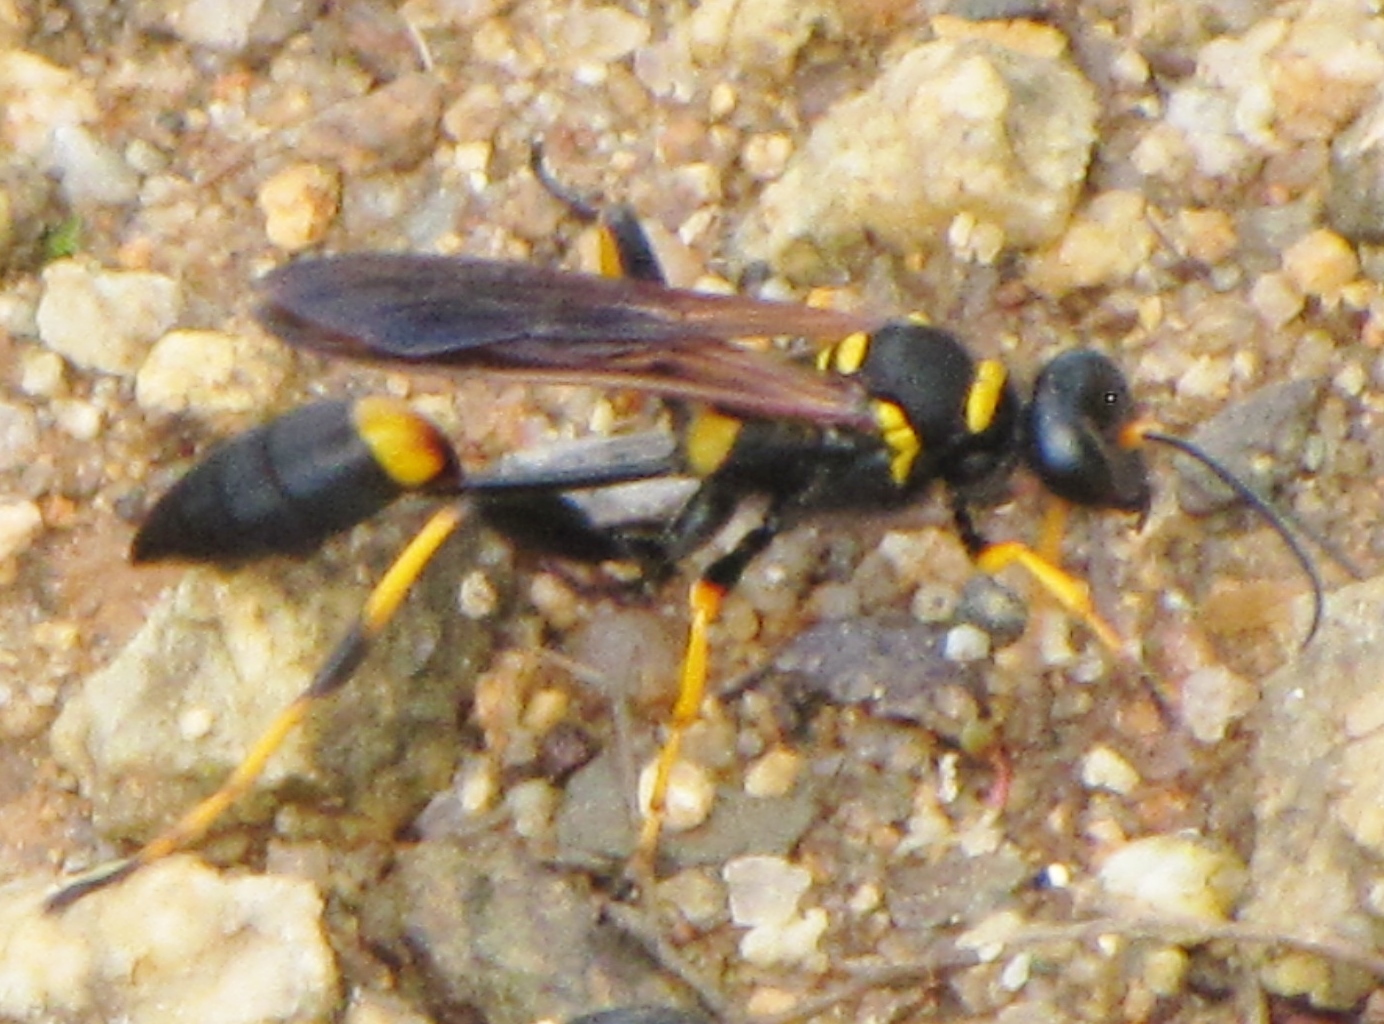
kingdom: Animalia
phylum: Arthropoda
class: Insecta
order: Hymenoptera
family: Sphecidae
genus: Sceliphron
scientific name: Sceliphron caementarium
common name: Mud dauber
